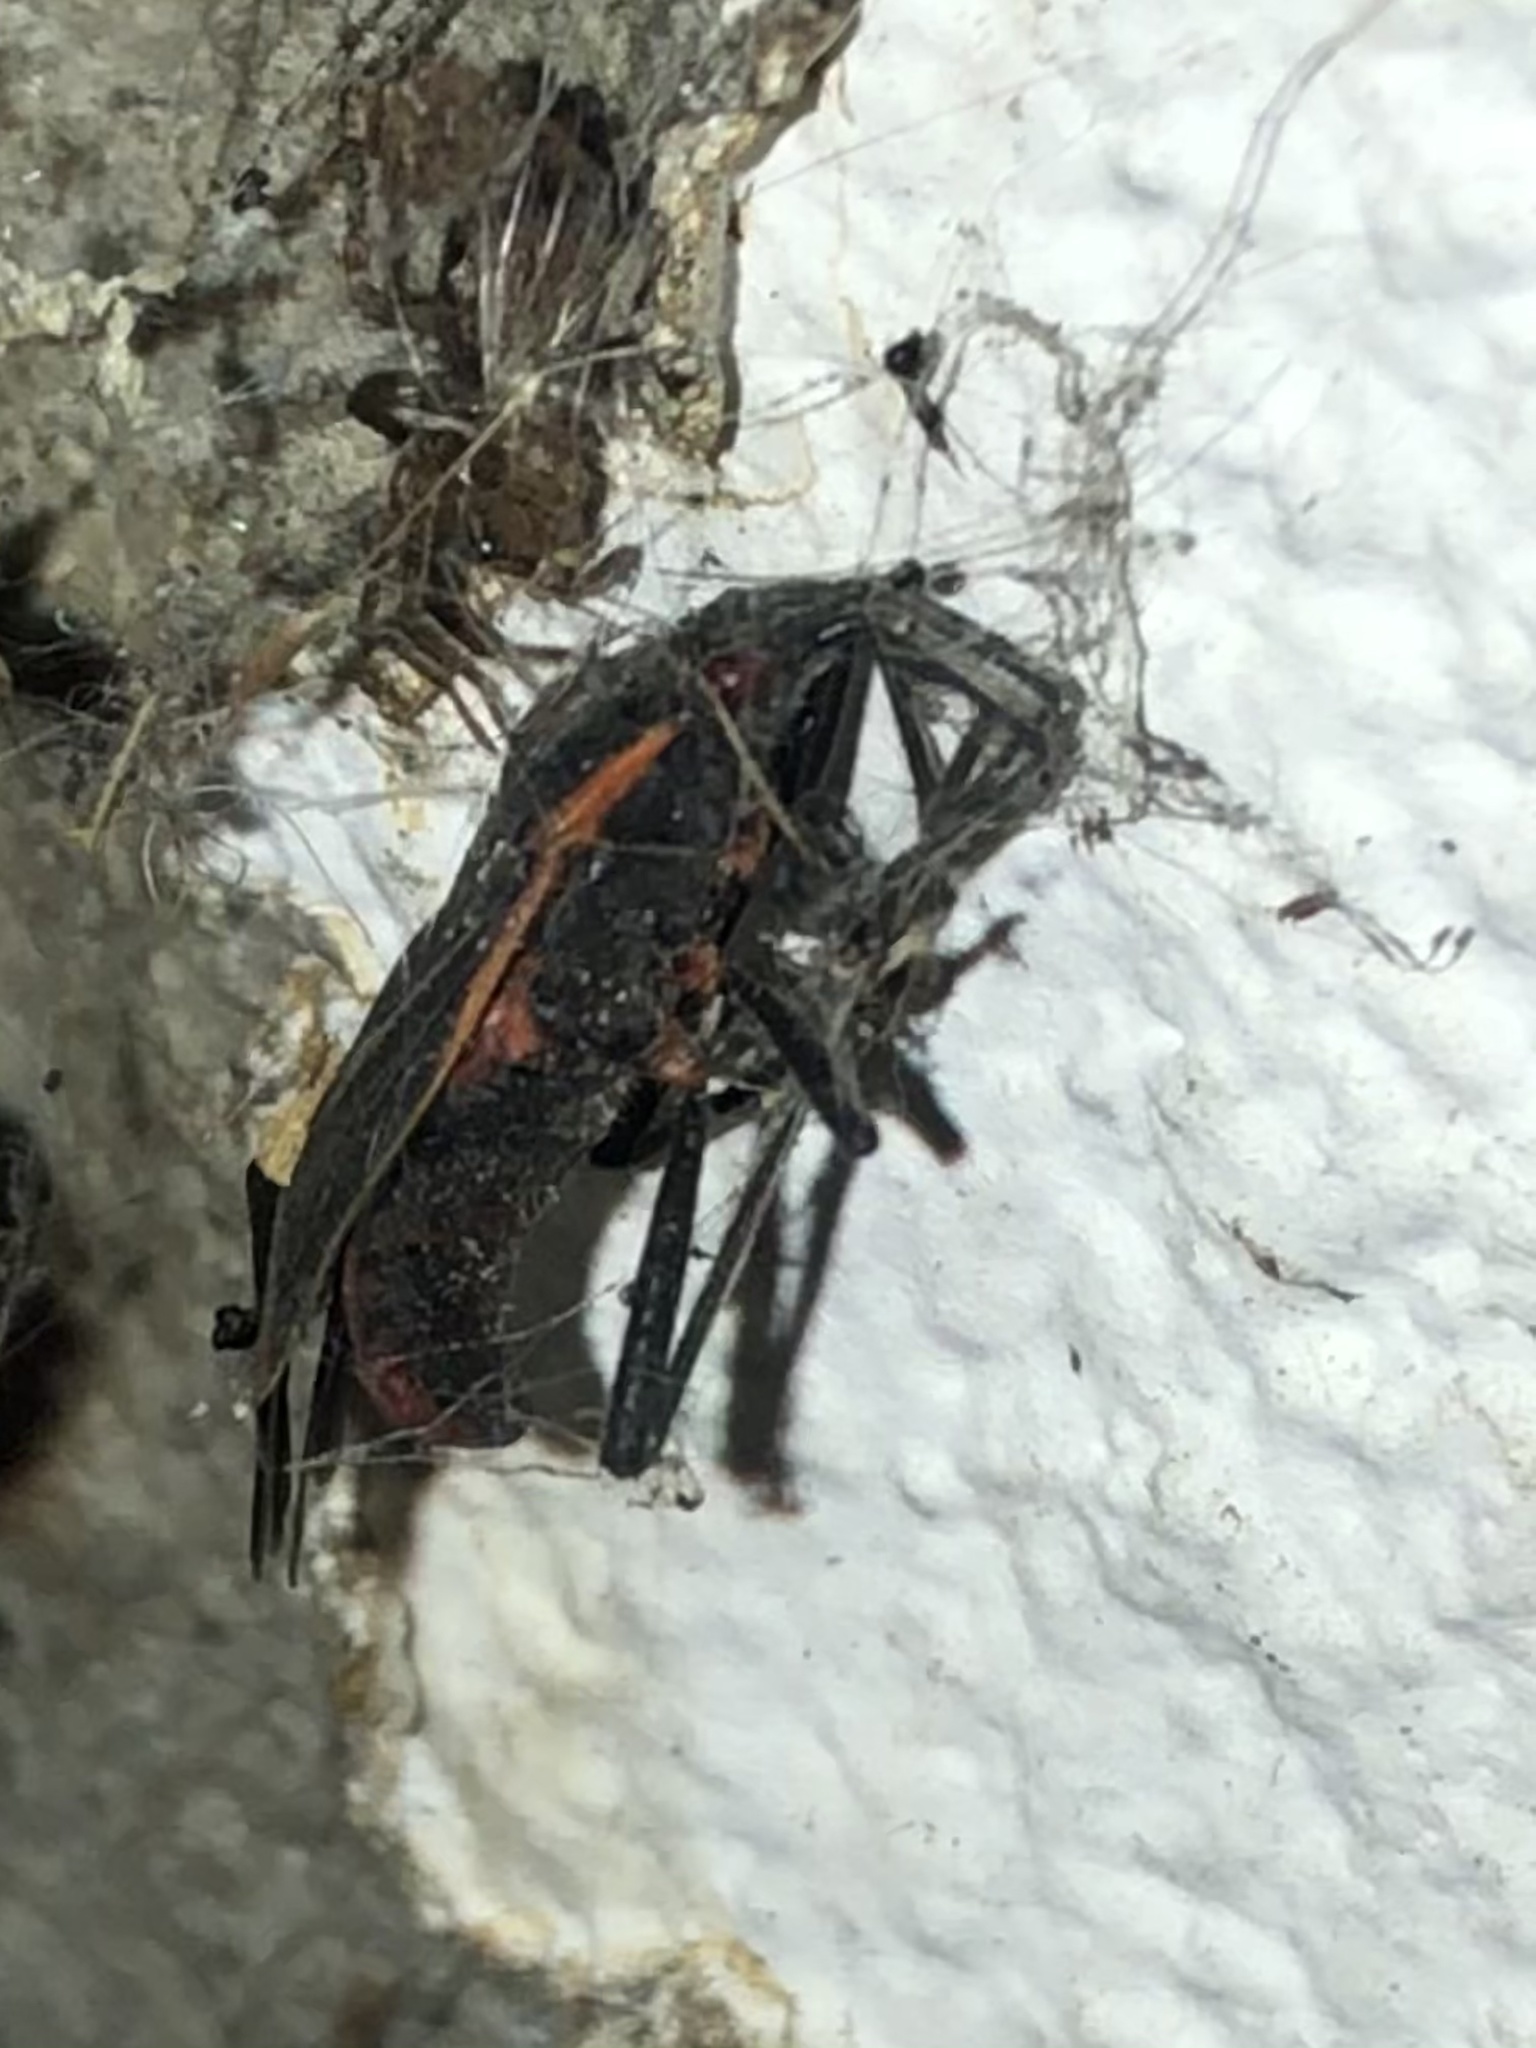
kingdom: Animalia
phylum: Arthropoda
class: Insecta
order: Hemiptera
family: Rhopalidae
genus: Boisea
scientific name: Boisea trivittata
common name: Boxelder bug
